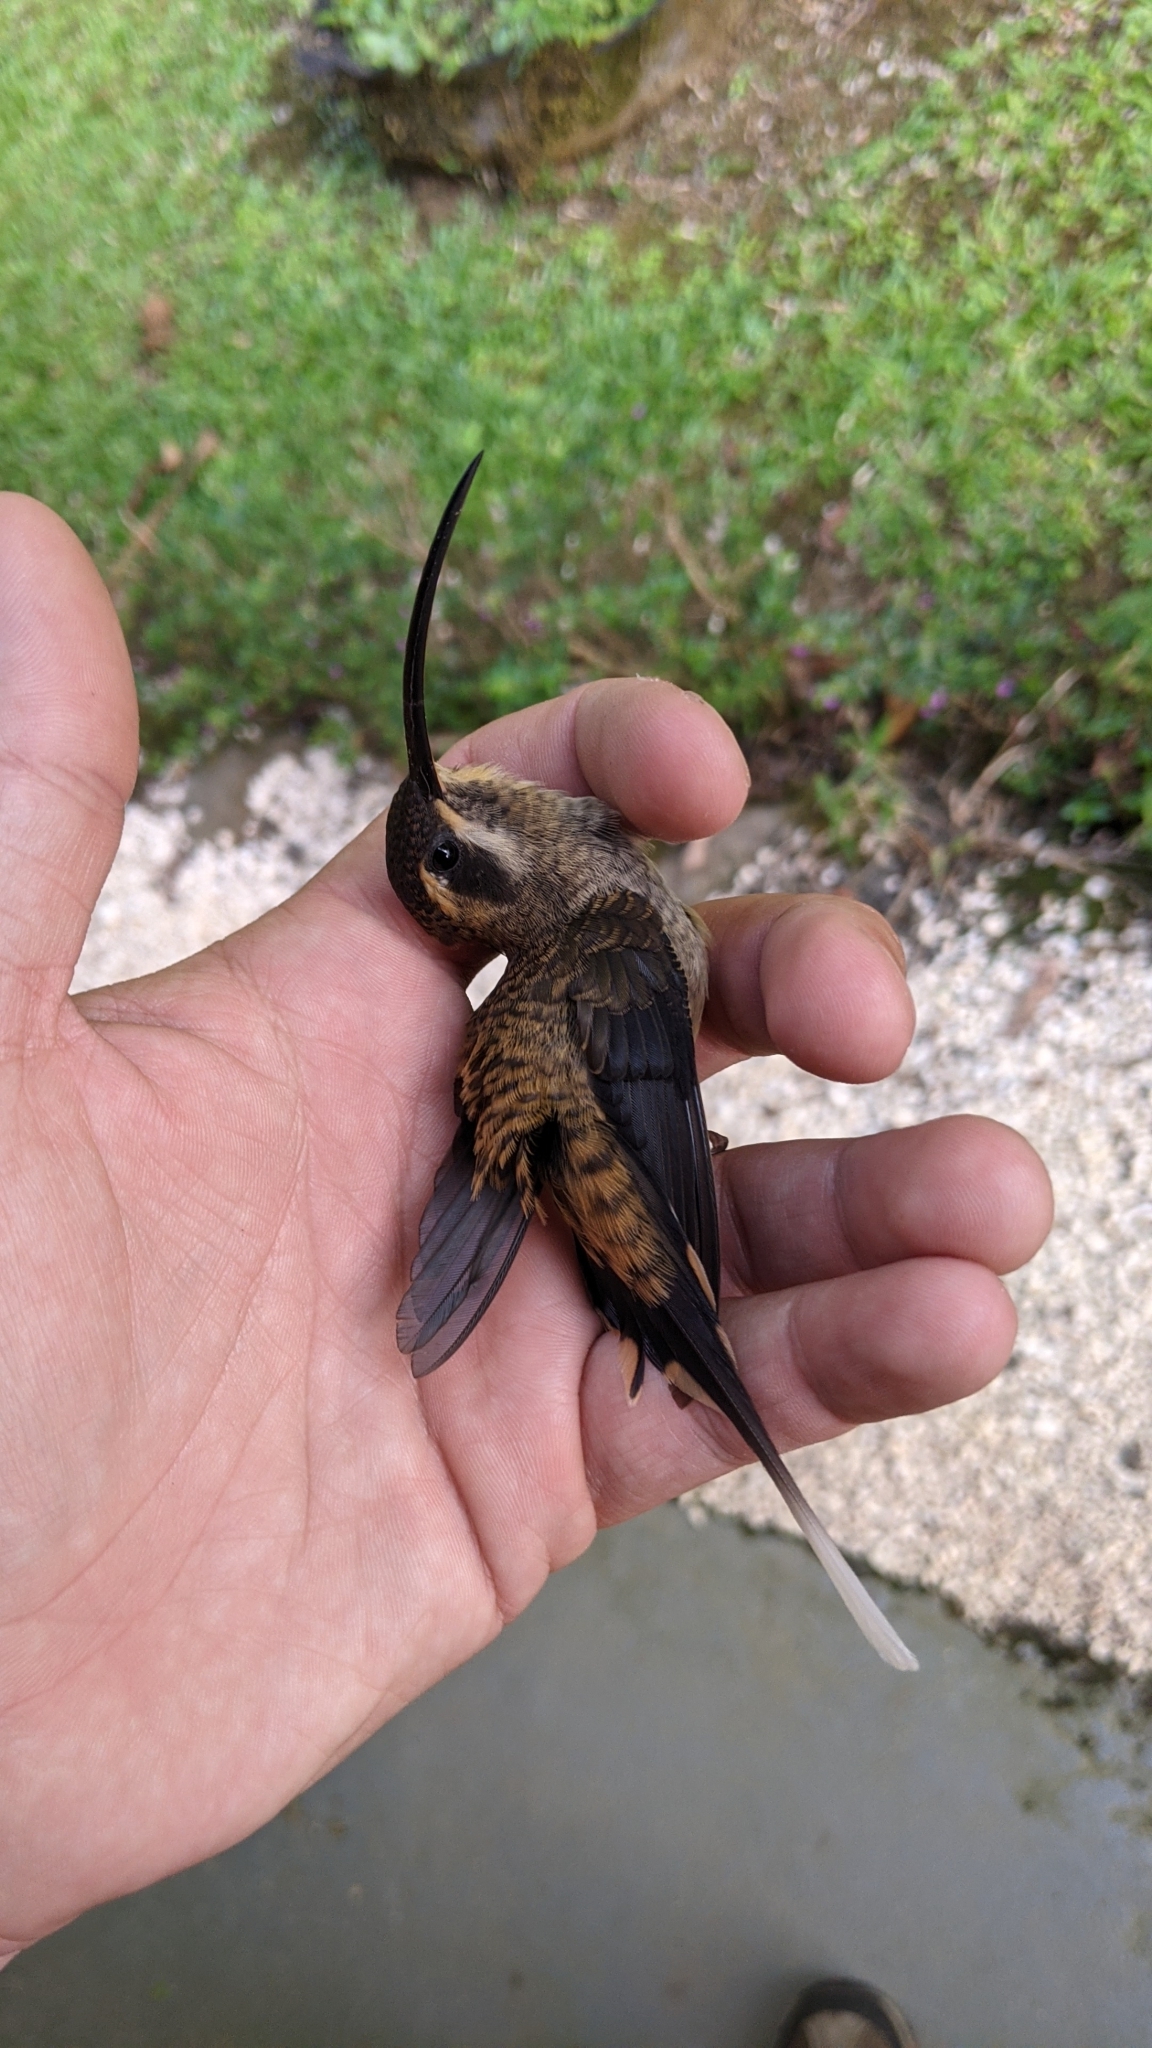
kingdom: Animalia
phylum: Chordata
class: Aves
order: Apodiformes
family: Trochilidae
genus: Phaethornis
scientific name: Phaethornis longirostris
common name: Long-billed hermit
